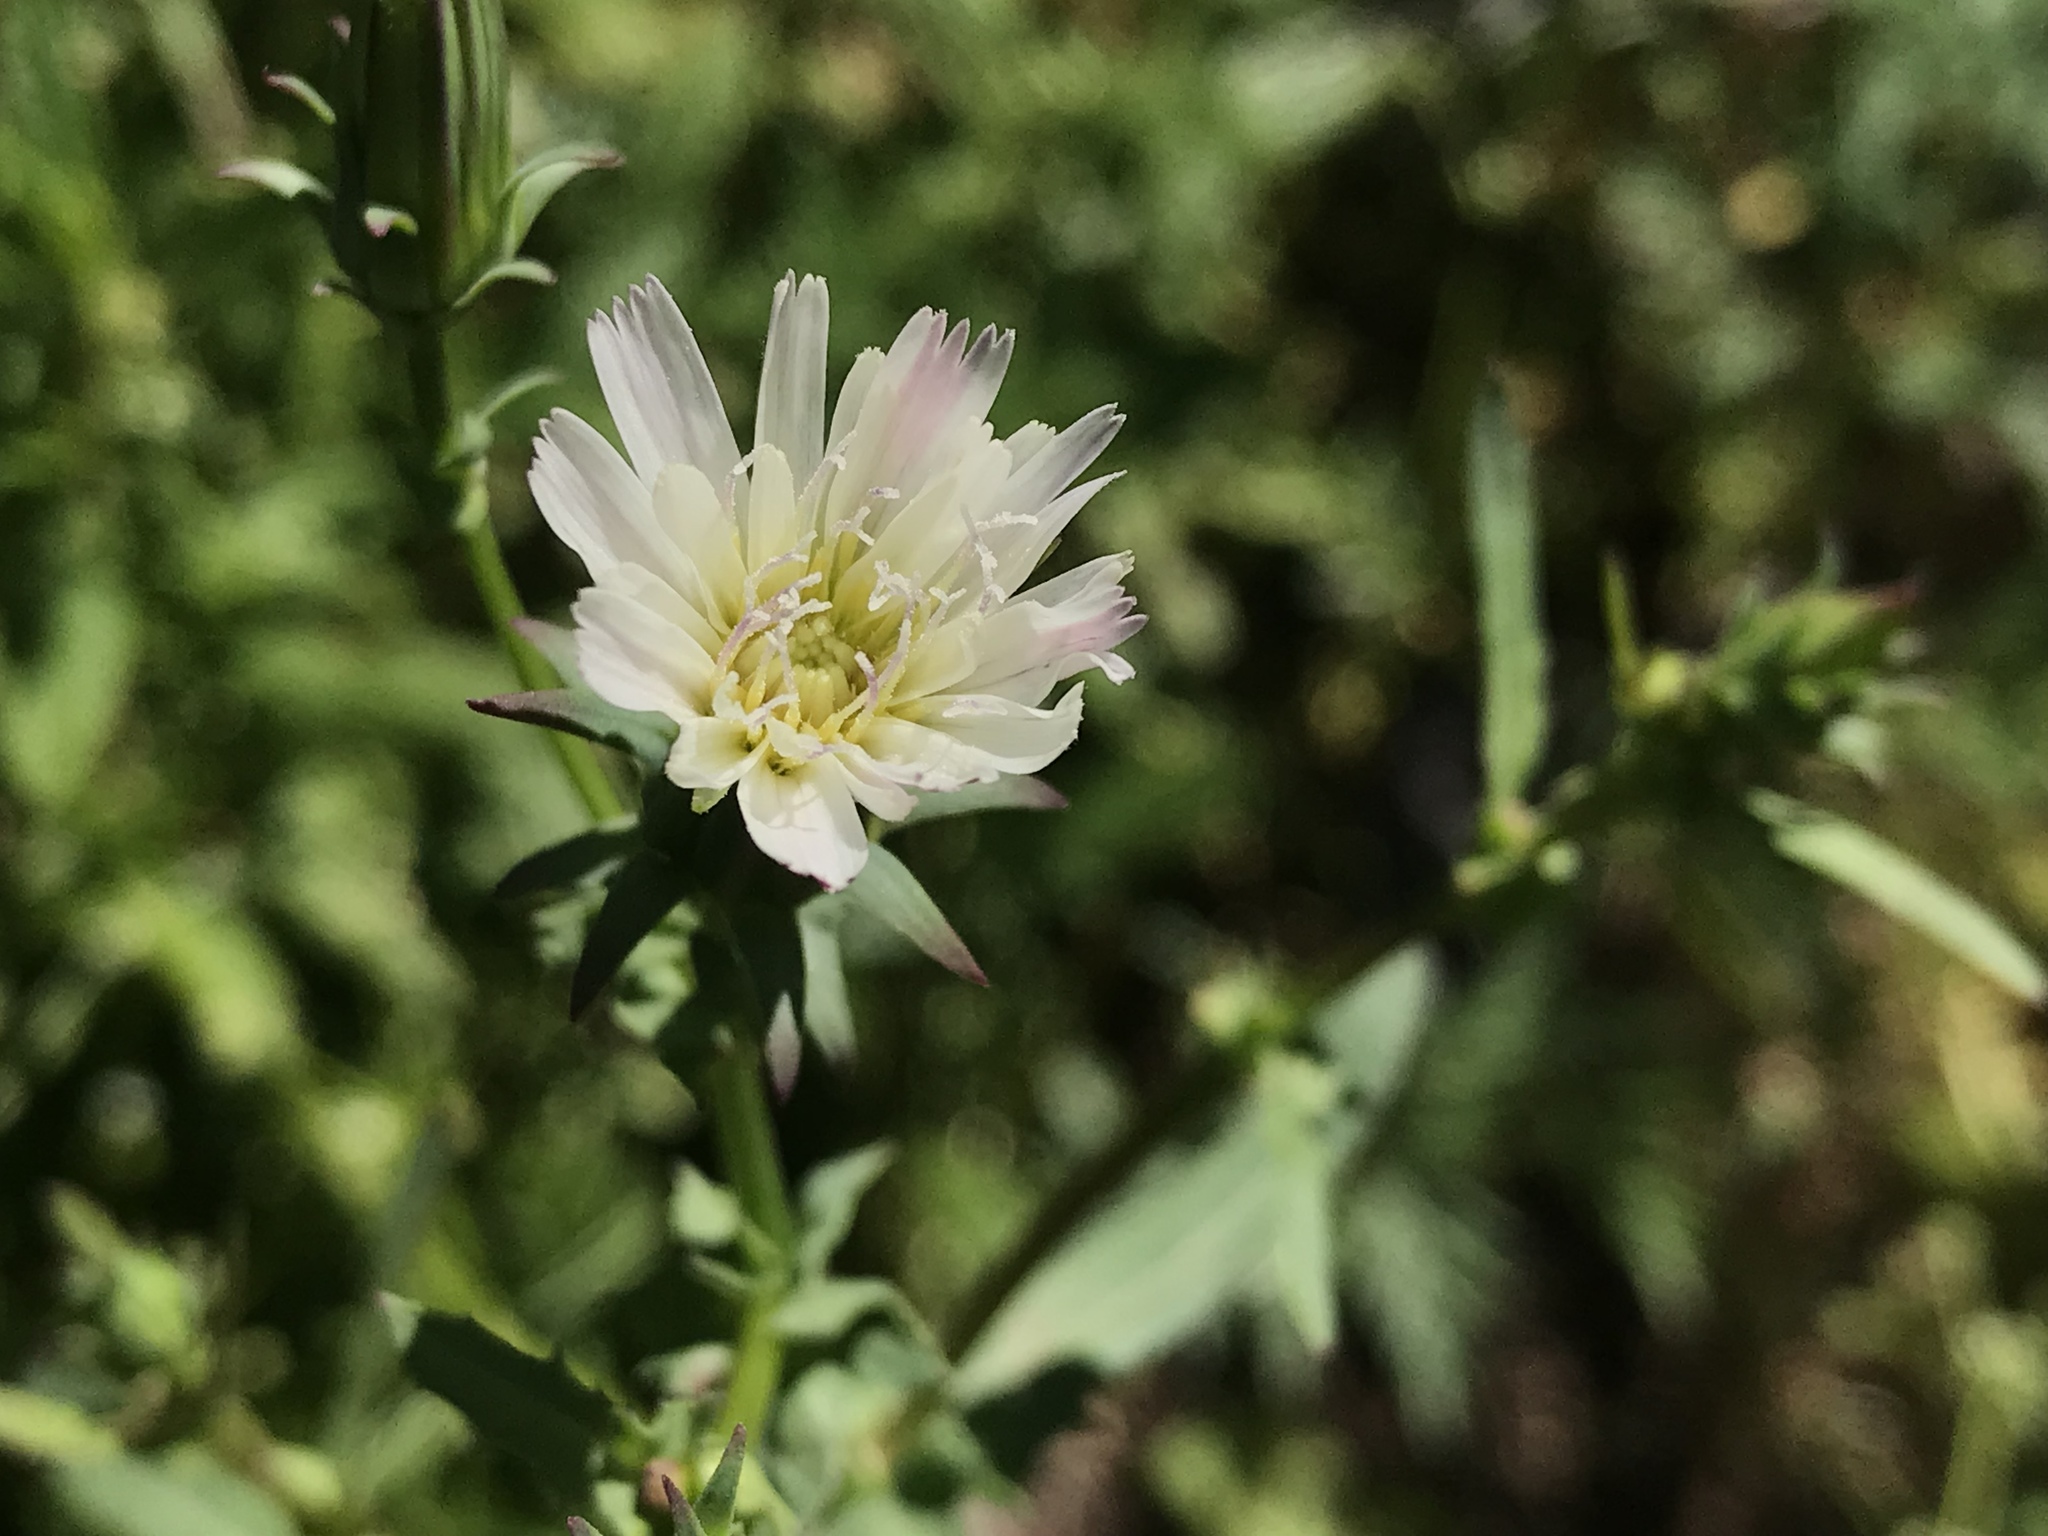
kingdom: Plantae
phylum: Tracheophyta
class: Magnoliopsida
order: Asterales
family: Asteraceae
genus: Rafinesquia
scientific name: Rafinesquia californica
